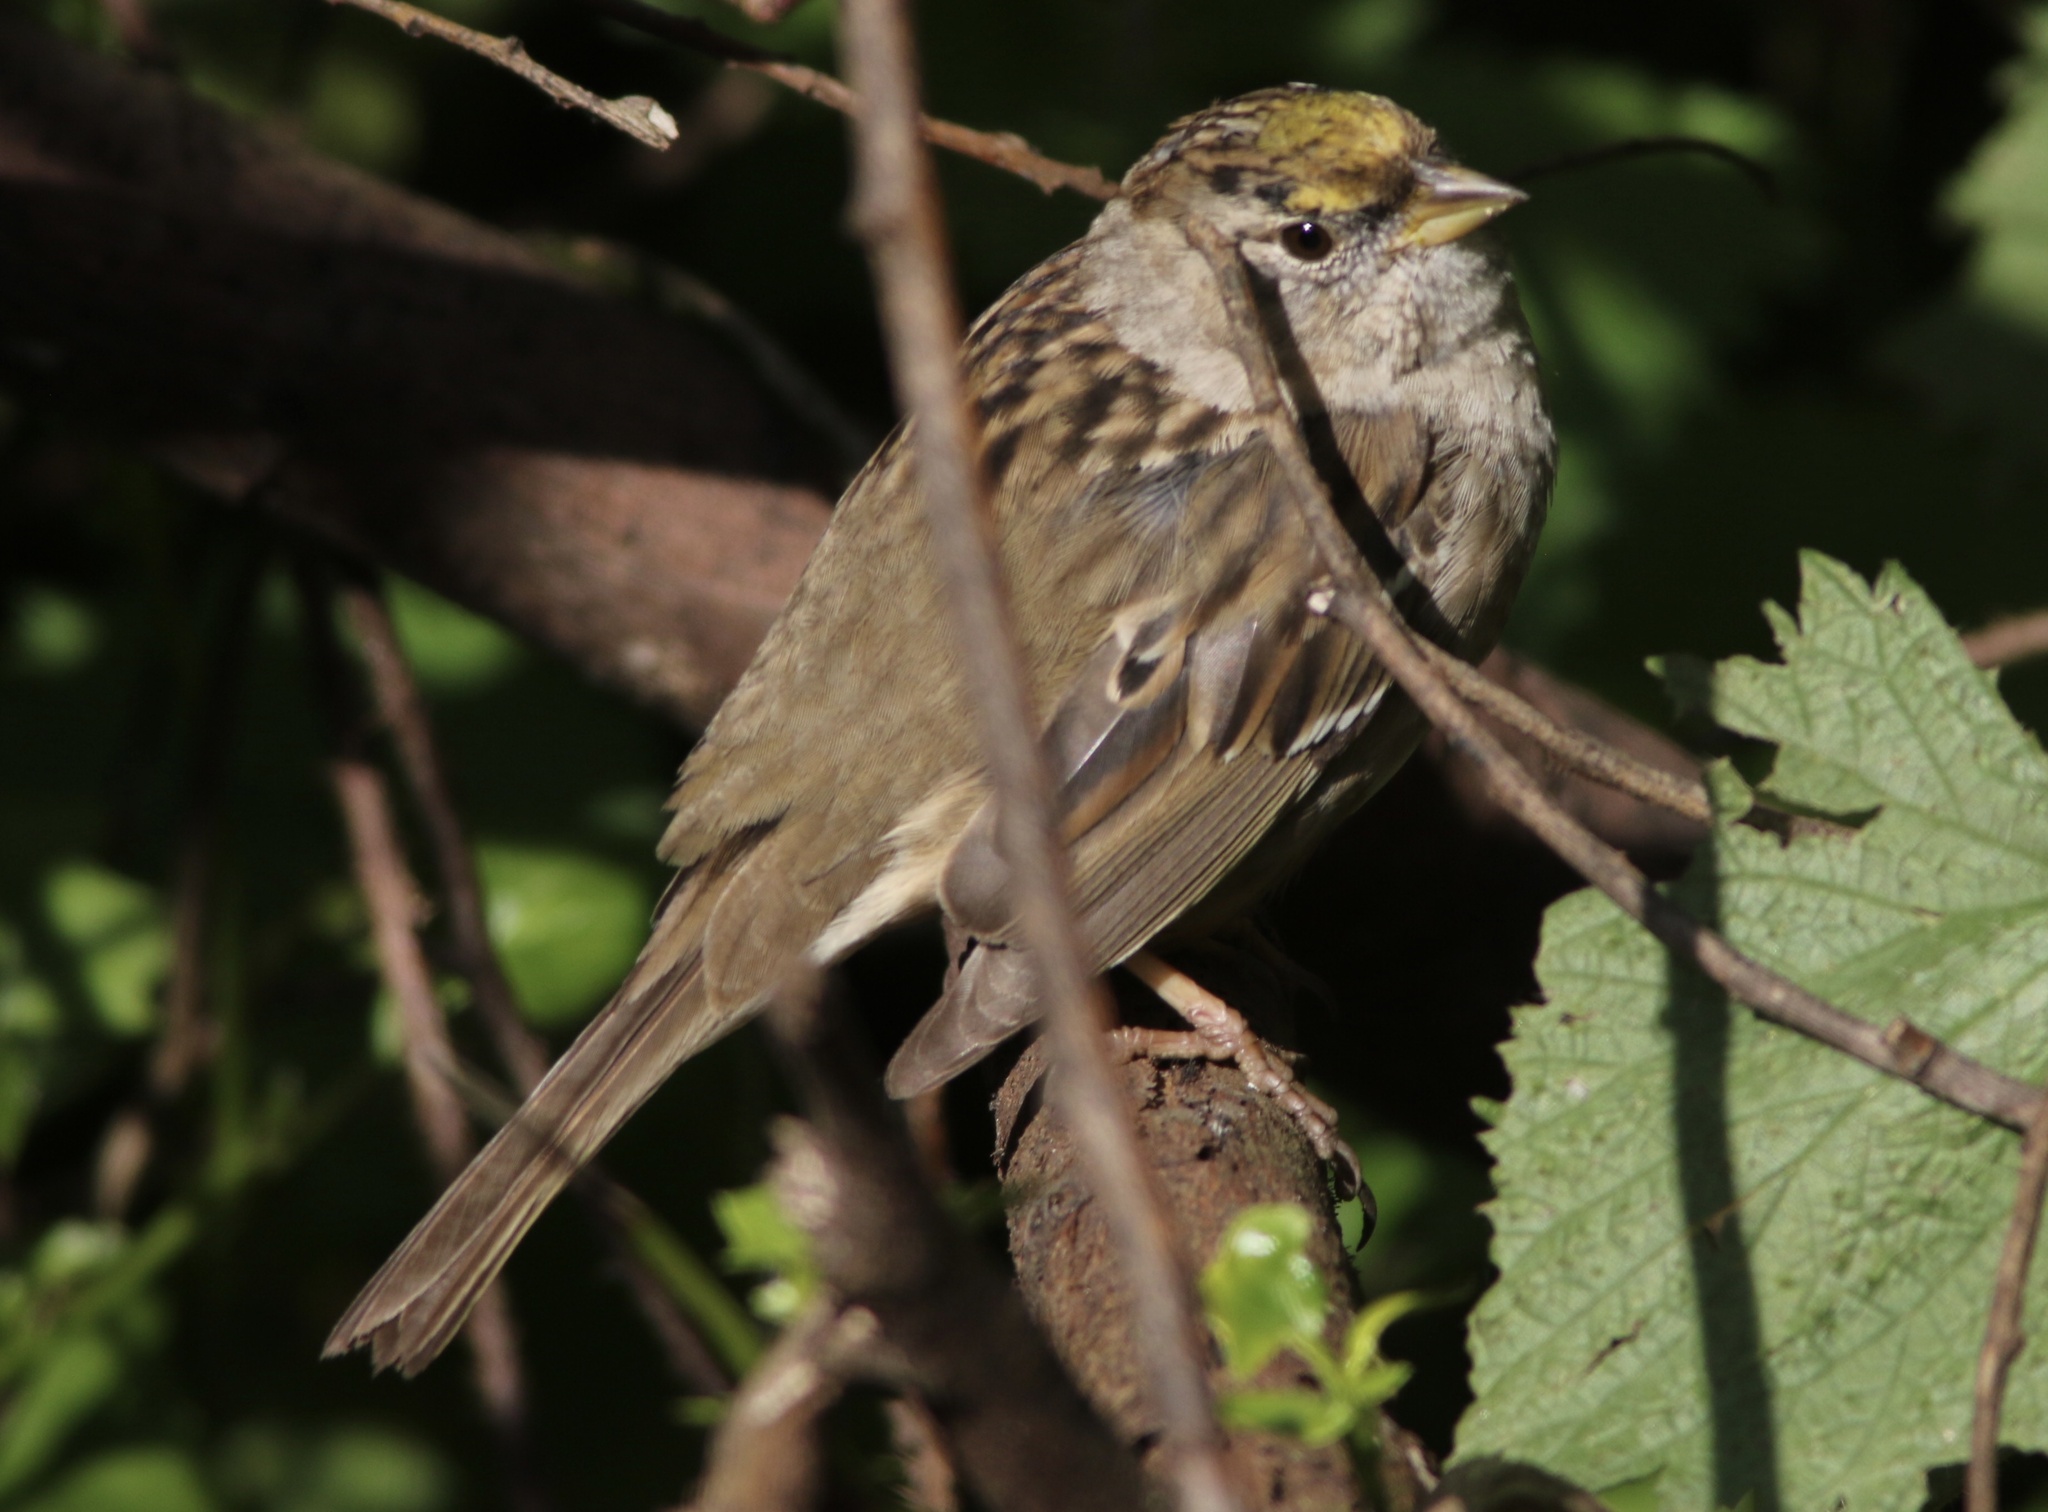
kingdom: Animalia
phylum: Chordata
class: Aves
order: Passeriformes
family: Passerellidae
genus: Zonotrichia
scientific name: Zonotrichia atricapilla
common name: Golden-crowned sparrow
